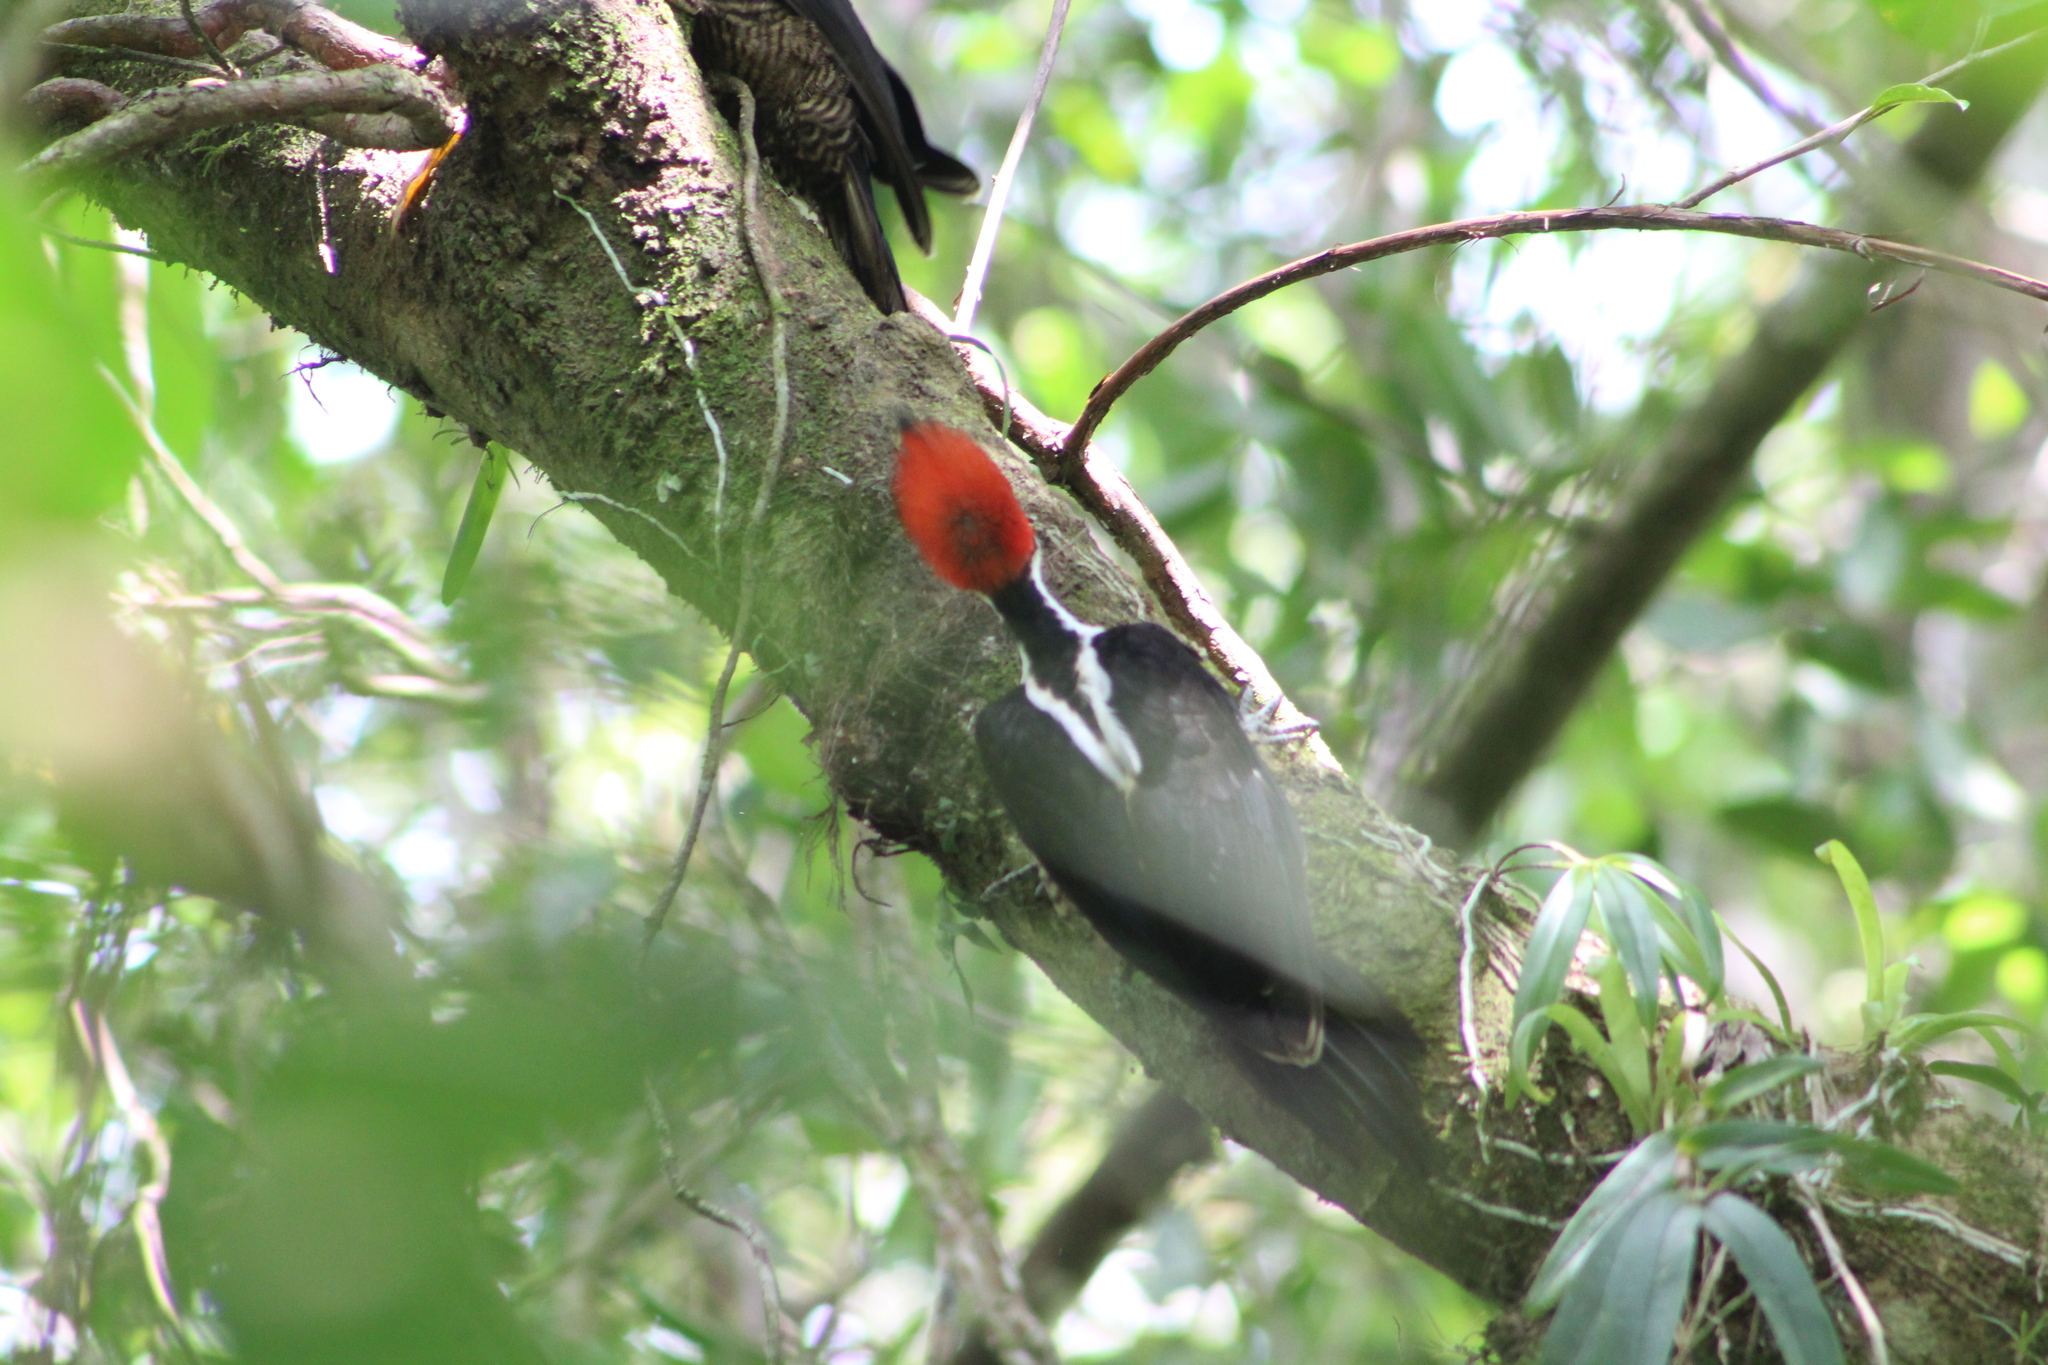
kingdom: Animalia
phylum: Chordata
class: Aves
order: Piciformes
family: Picidae
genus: Campephilus
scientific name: Campephilus melanoleucos
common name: Crimson-crested woodpecker
